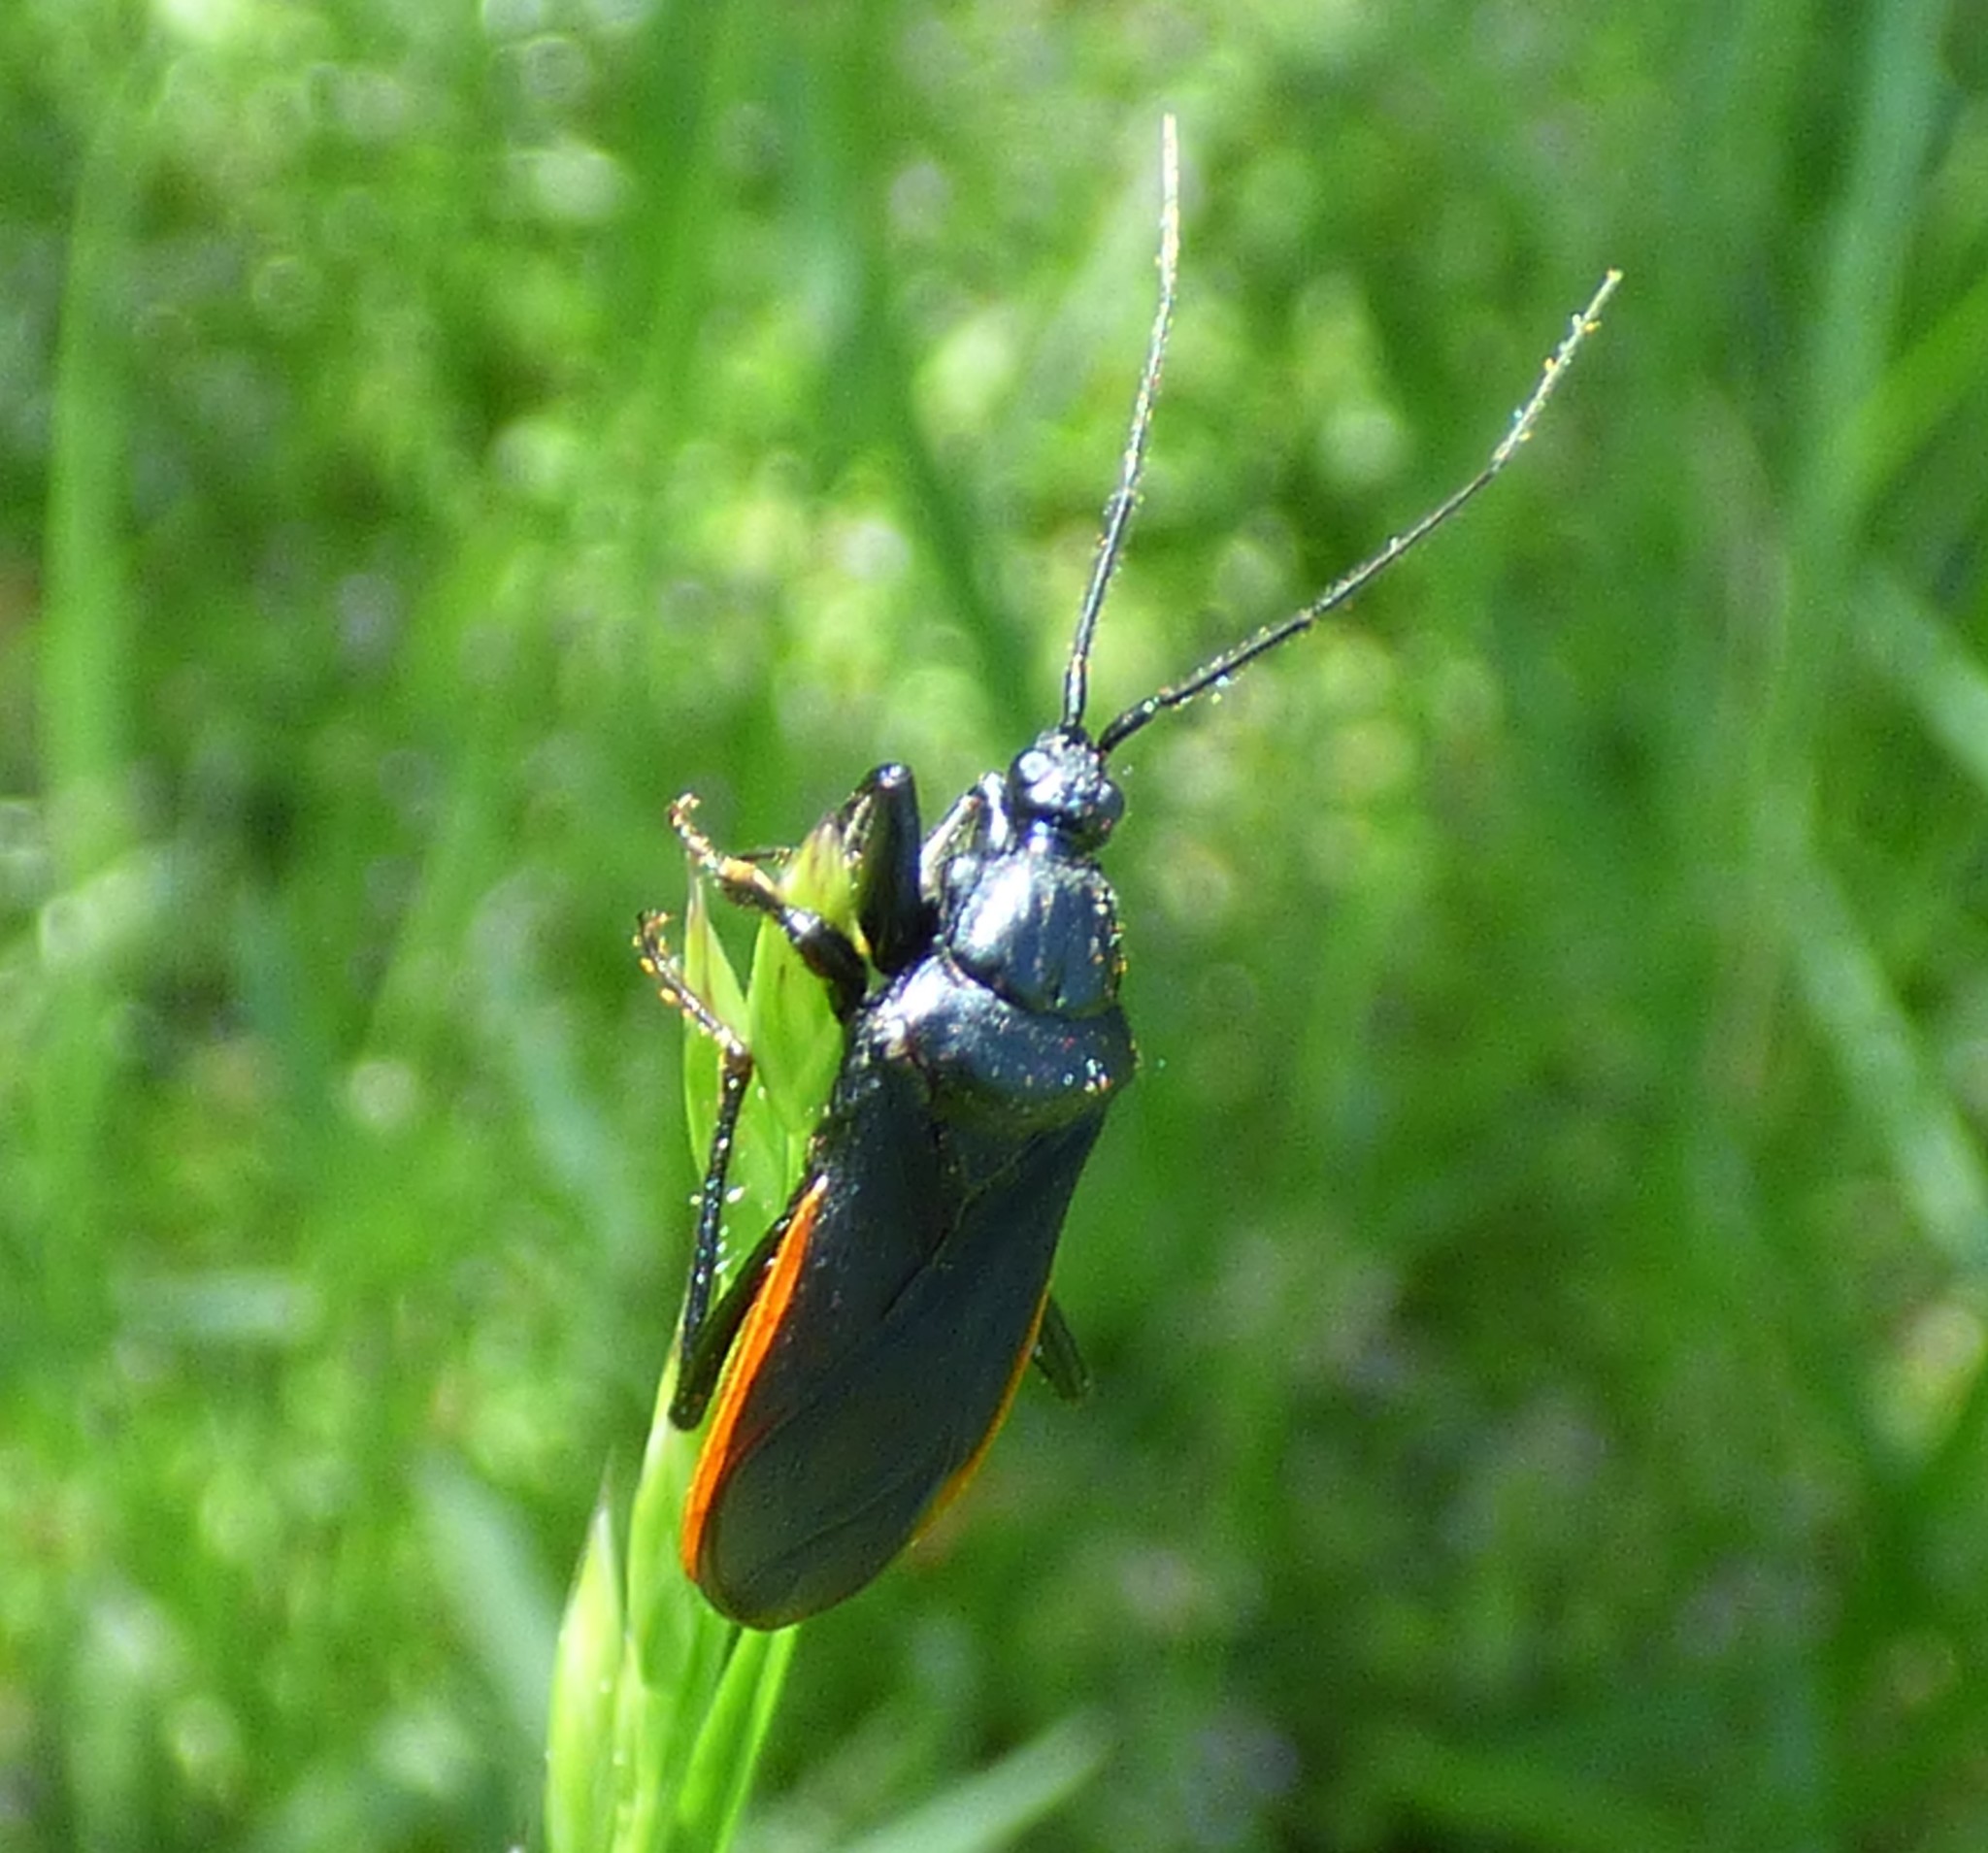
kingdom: Animalia
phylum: Arthropoda
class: Insecta
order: Hemiptera
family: Reduviidae
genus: Melanolestes
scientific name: Melanolestes picipes
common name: Assassin bug
